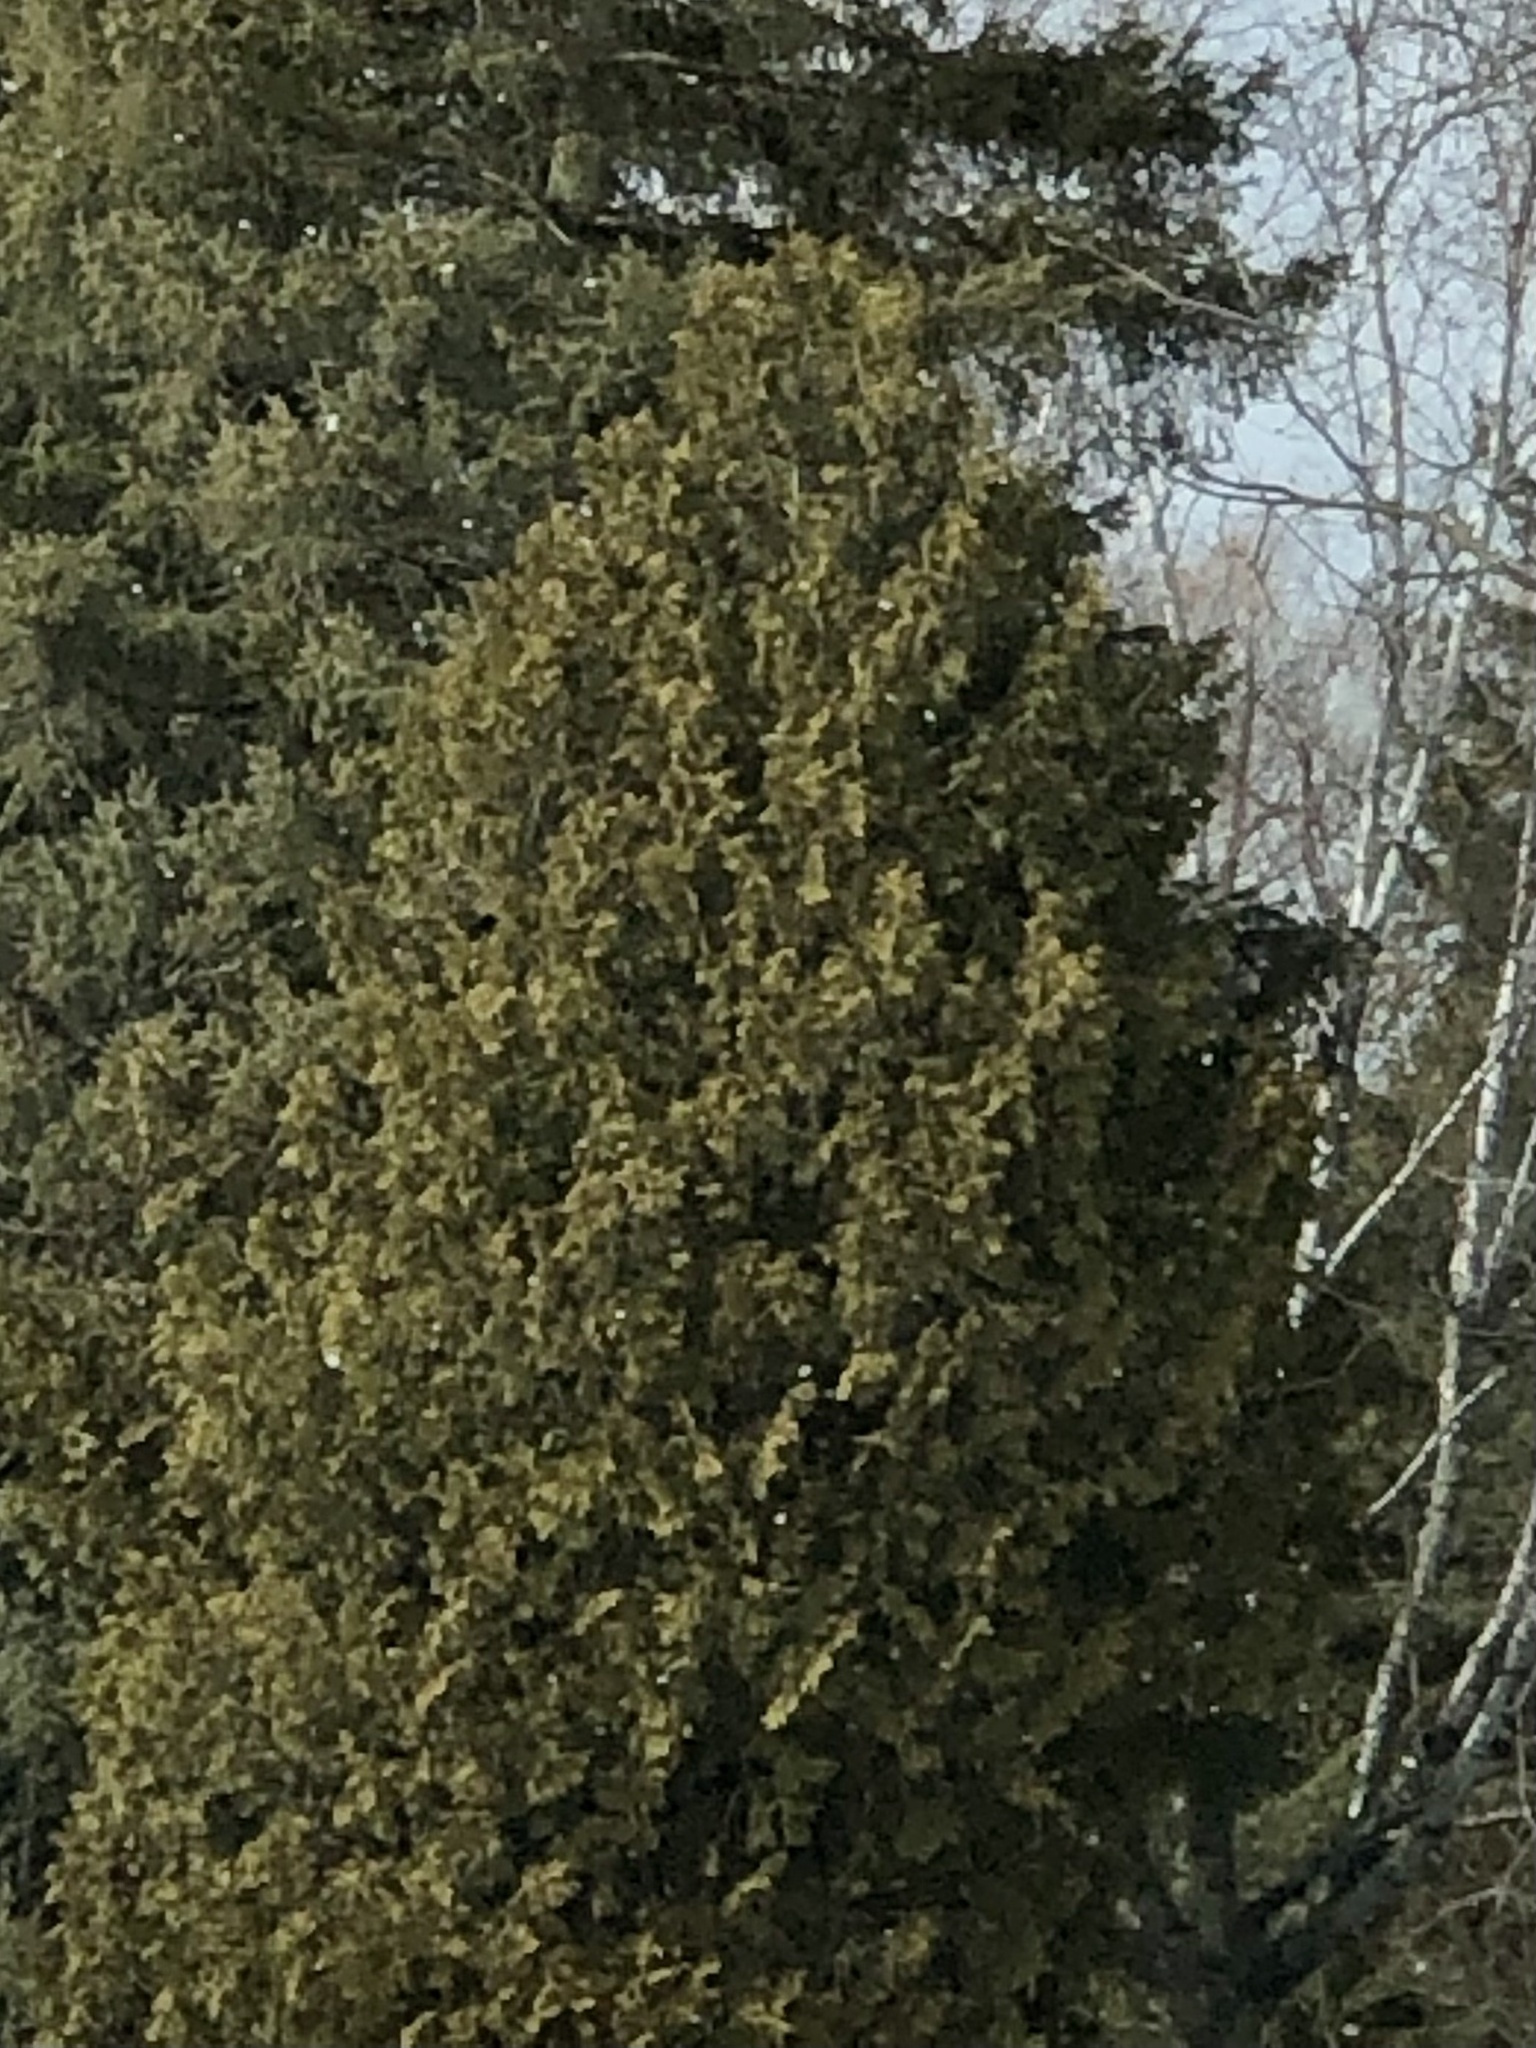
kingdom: Plantae
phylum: Tracheophyta
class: Pinopsida
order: Pinales
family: Cupressaceae
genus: Thuja
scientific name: Thuja occidentalis
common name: Northern white-cedar
